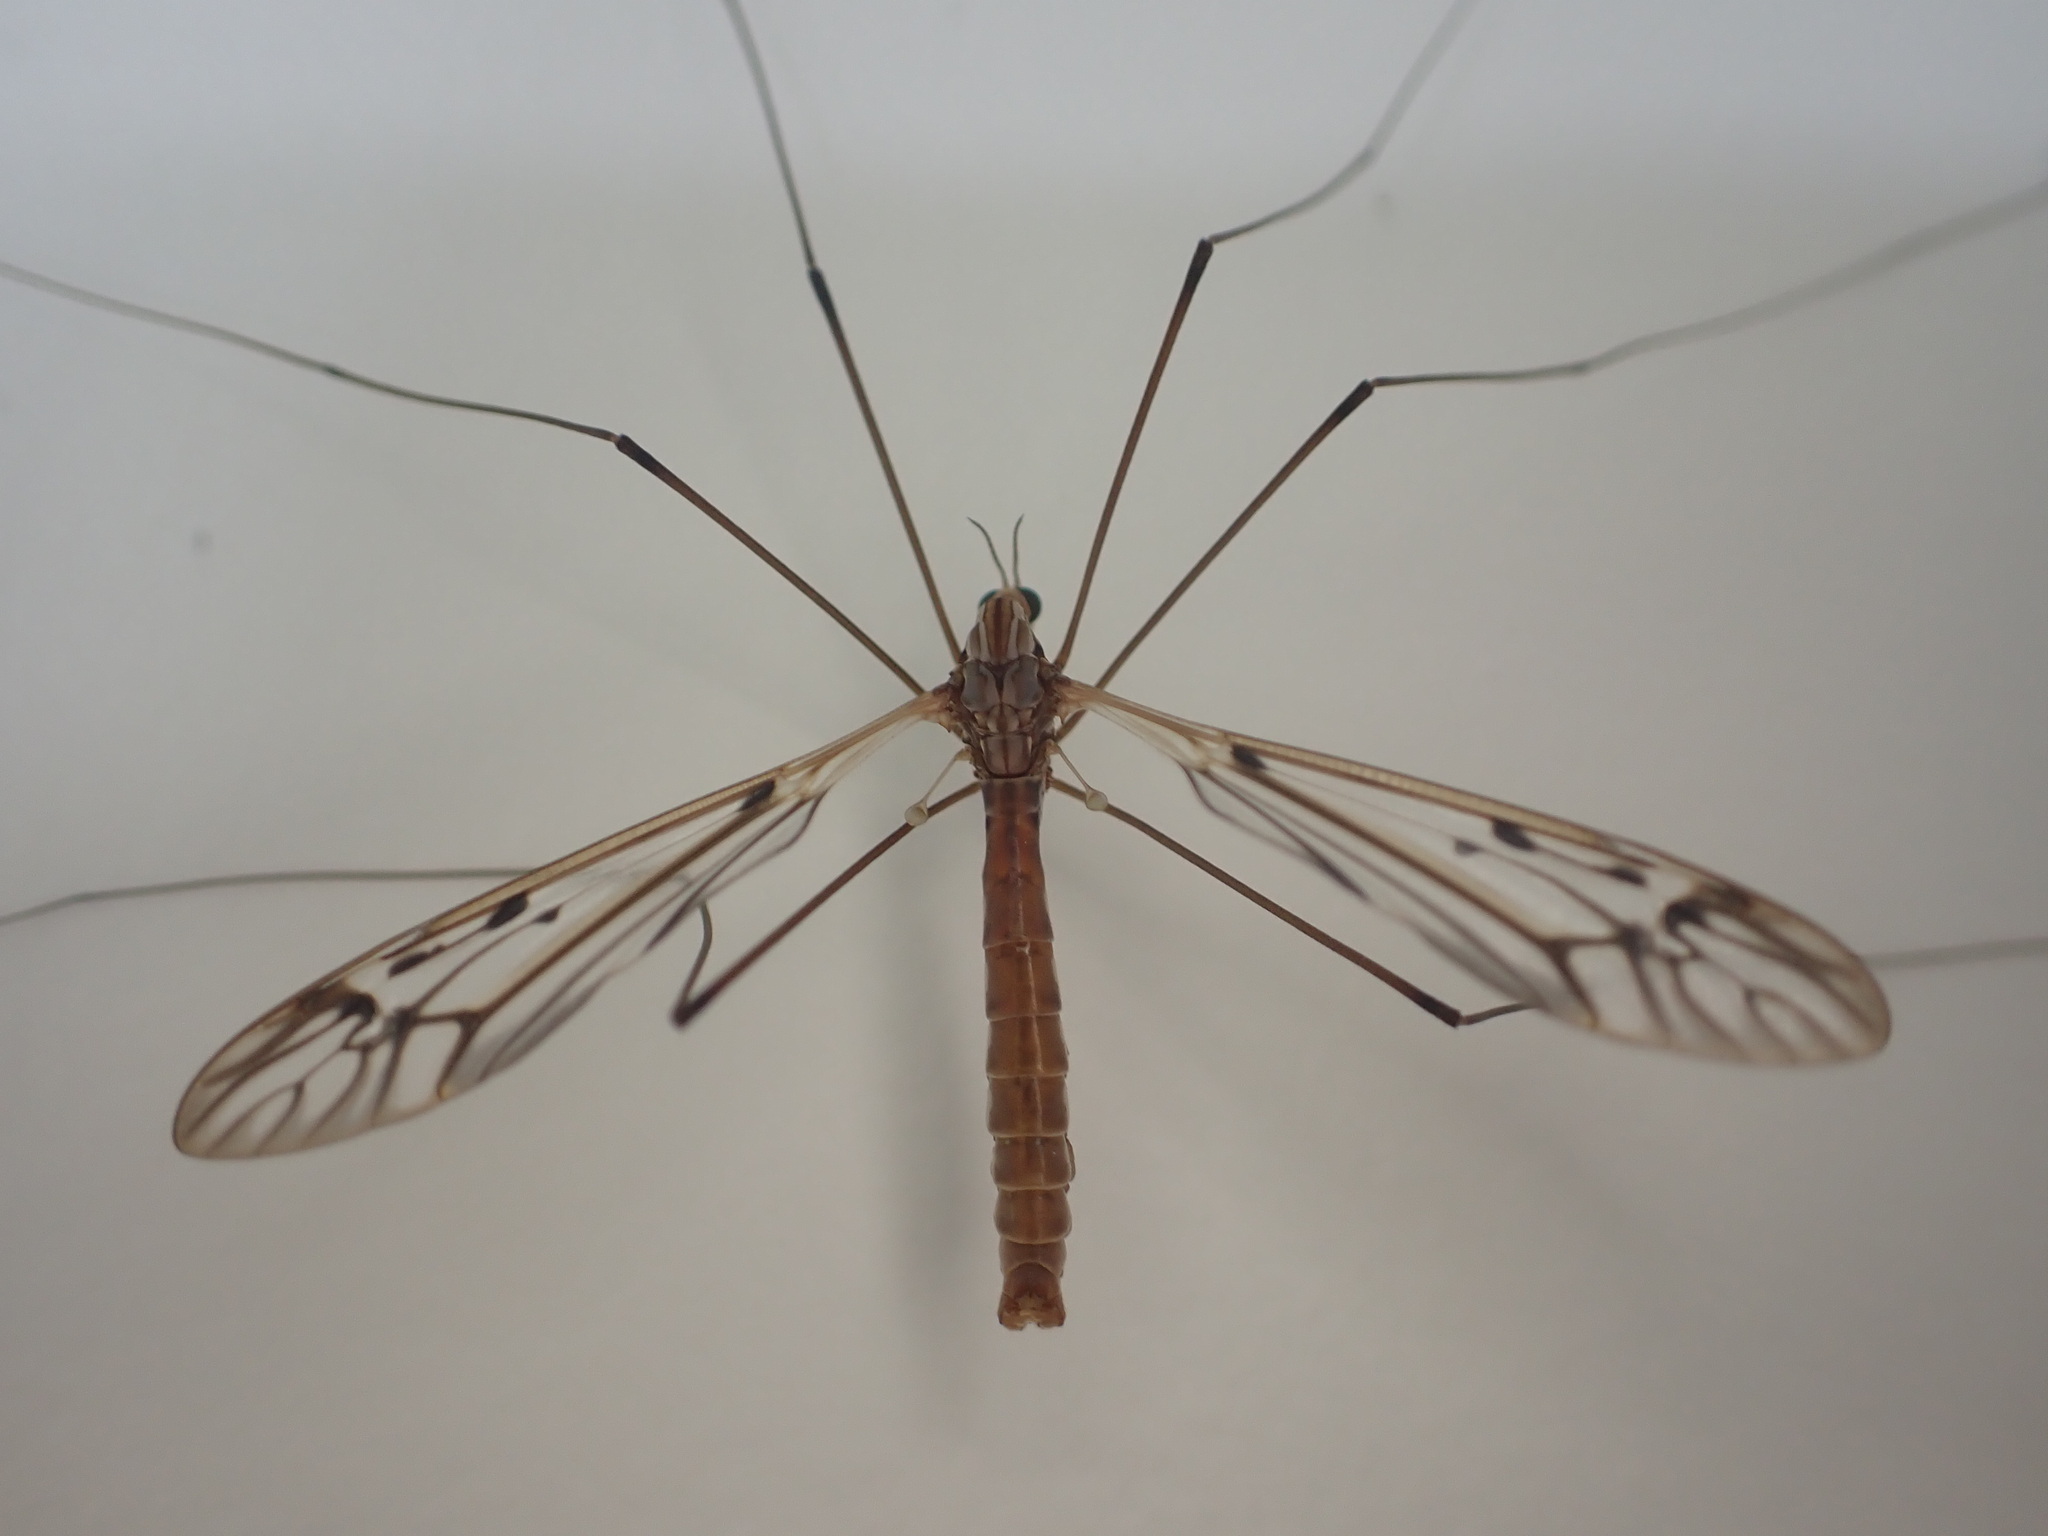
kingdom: Animalia
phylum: Arthropoda
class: Insecta
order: Diptera
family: Tipulidae
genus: Zelandotipula
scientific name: Zelandotipula novarae
